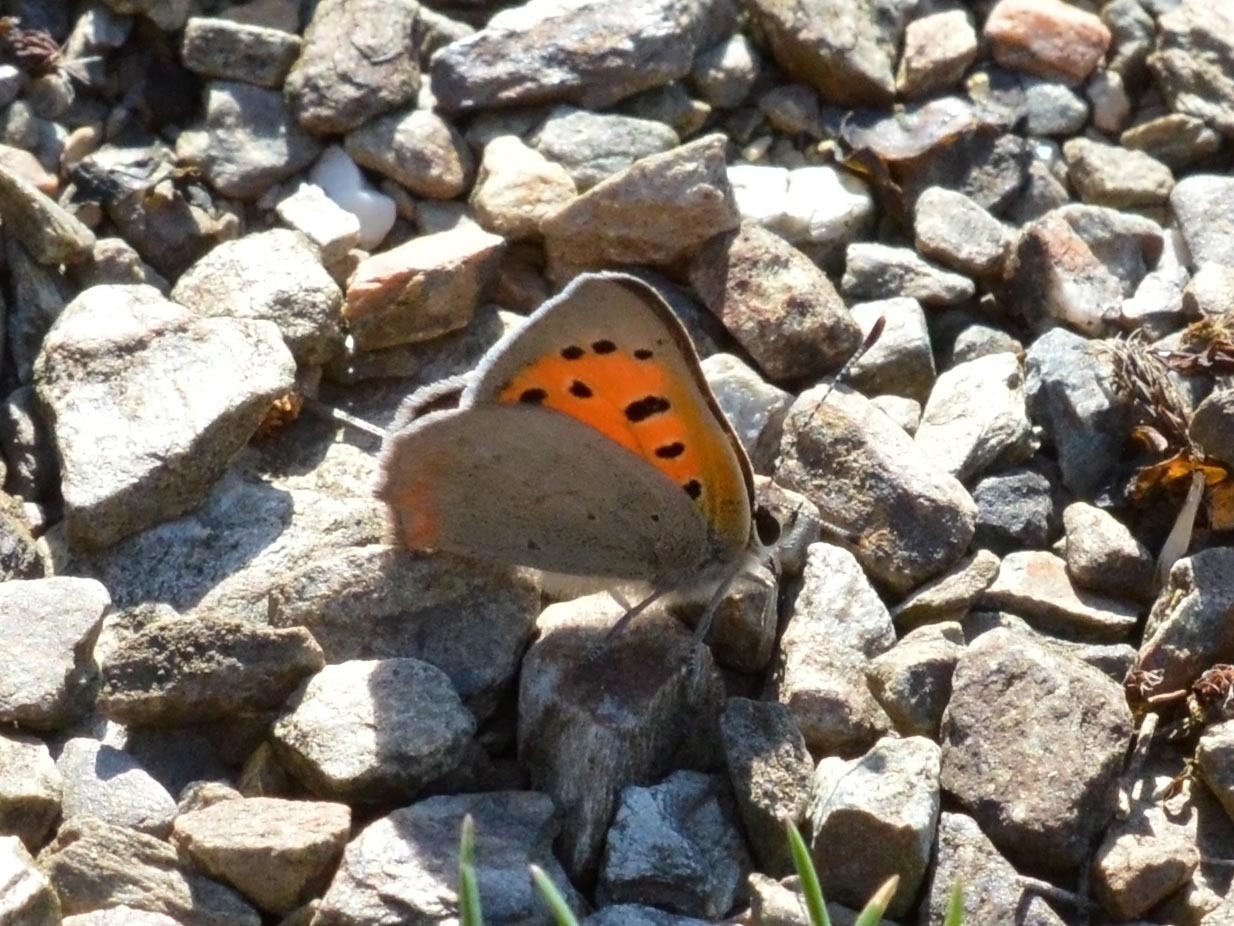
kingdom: Animalia
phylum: Arthropoda
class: Insecta
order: Lepidoptera
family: Lycaenidae
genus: Lycaena
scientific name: Lycaena phlaeas
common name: Small copper
